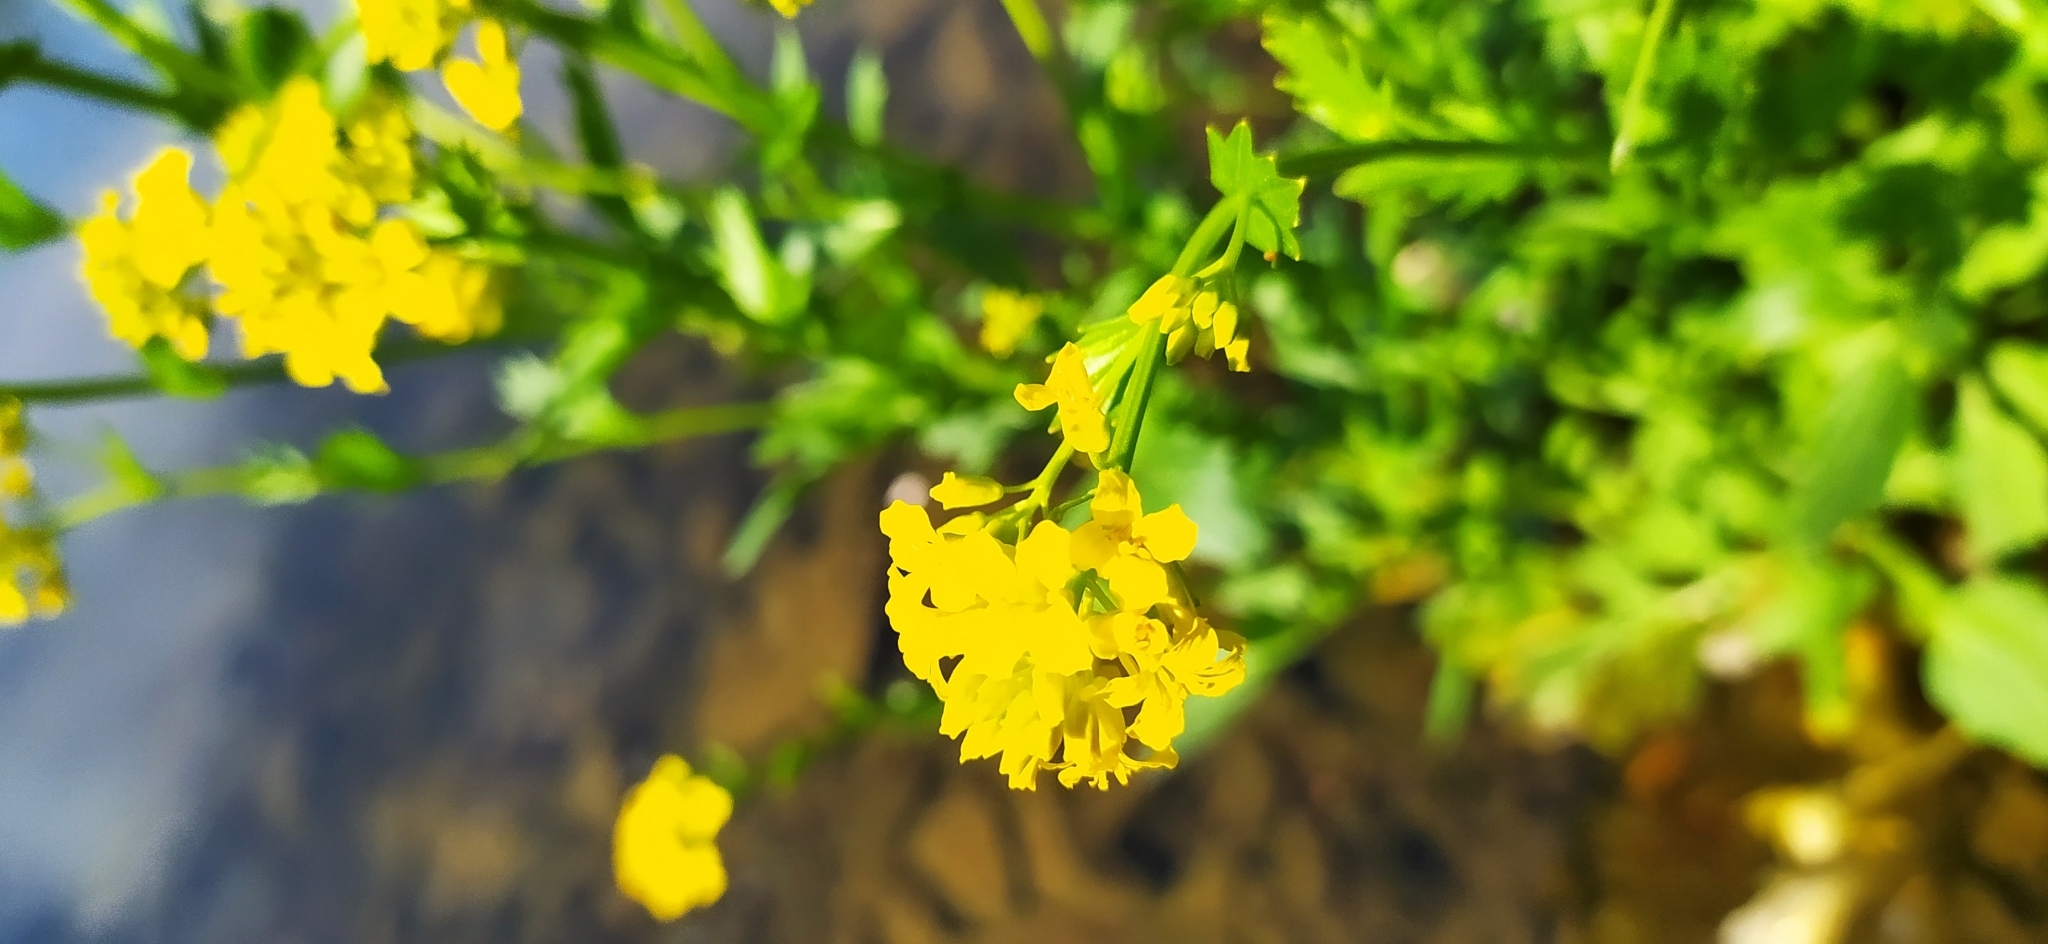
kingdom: Plantae
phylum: Tracheophyta
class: Magnoliopsida
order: Brassicales
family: Brassicaceae
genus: Barbarea
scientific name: Barbarea vulgaris
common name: Cressy-greens
